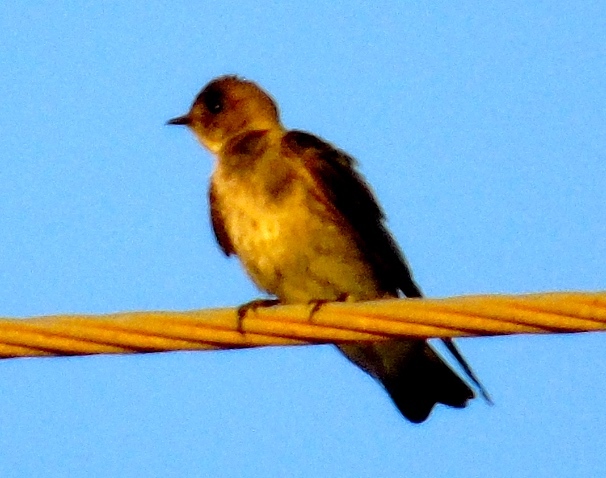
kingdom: Animalia
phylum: Chordata
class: Aves
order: Passeriformes
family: Hirundinidae
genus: Stelgidopteryx
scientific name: Stelgidopteryx serripennis
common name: Northern rough-winged swallow
